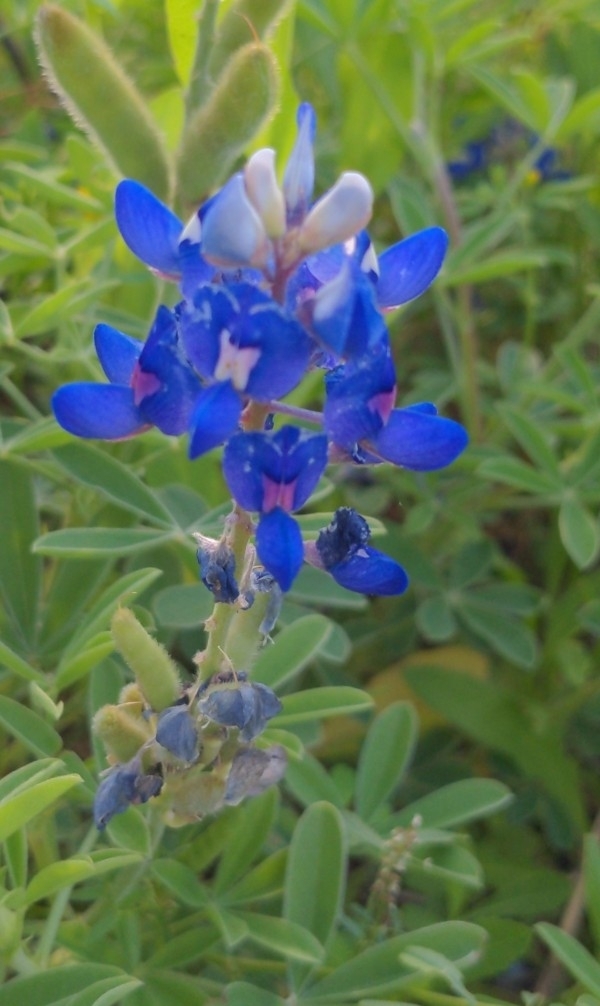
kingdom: Plantae
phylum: Tracheophyta
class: Magnoliopsida
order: Fabales
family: Fabaceae
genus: Lupinus
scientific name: Lupinus texensis
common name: Texas bluebonnet
